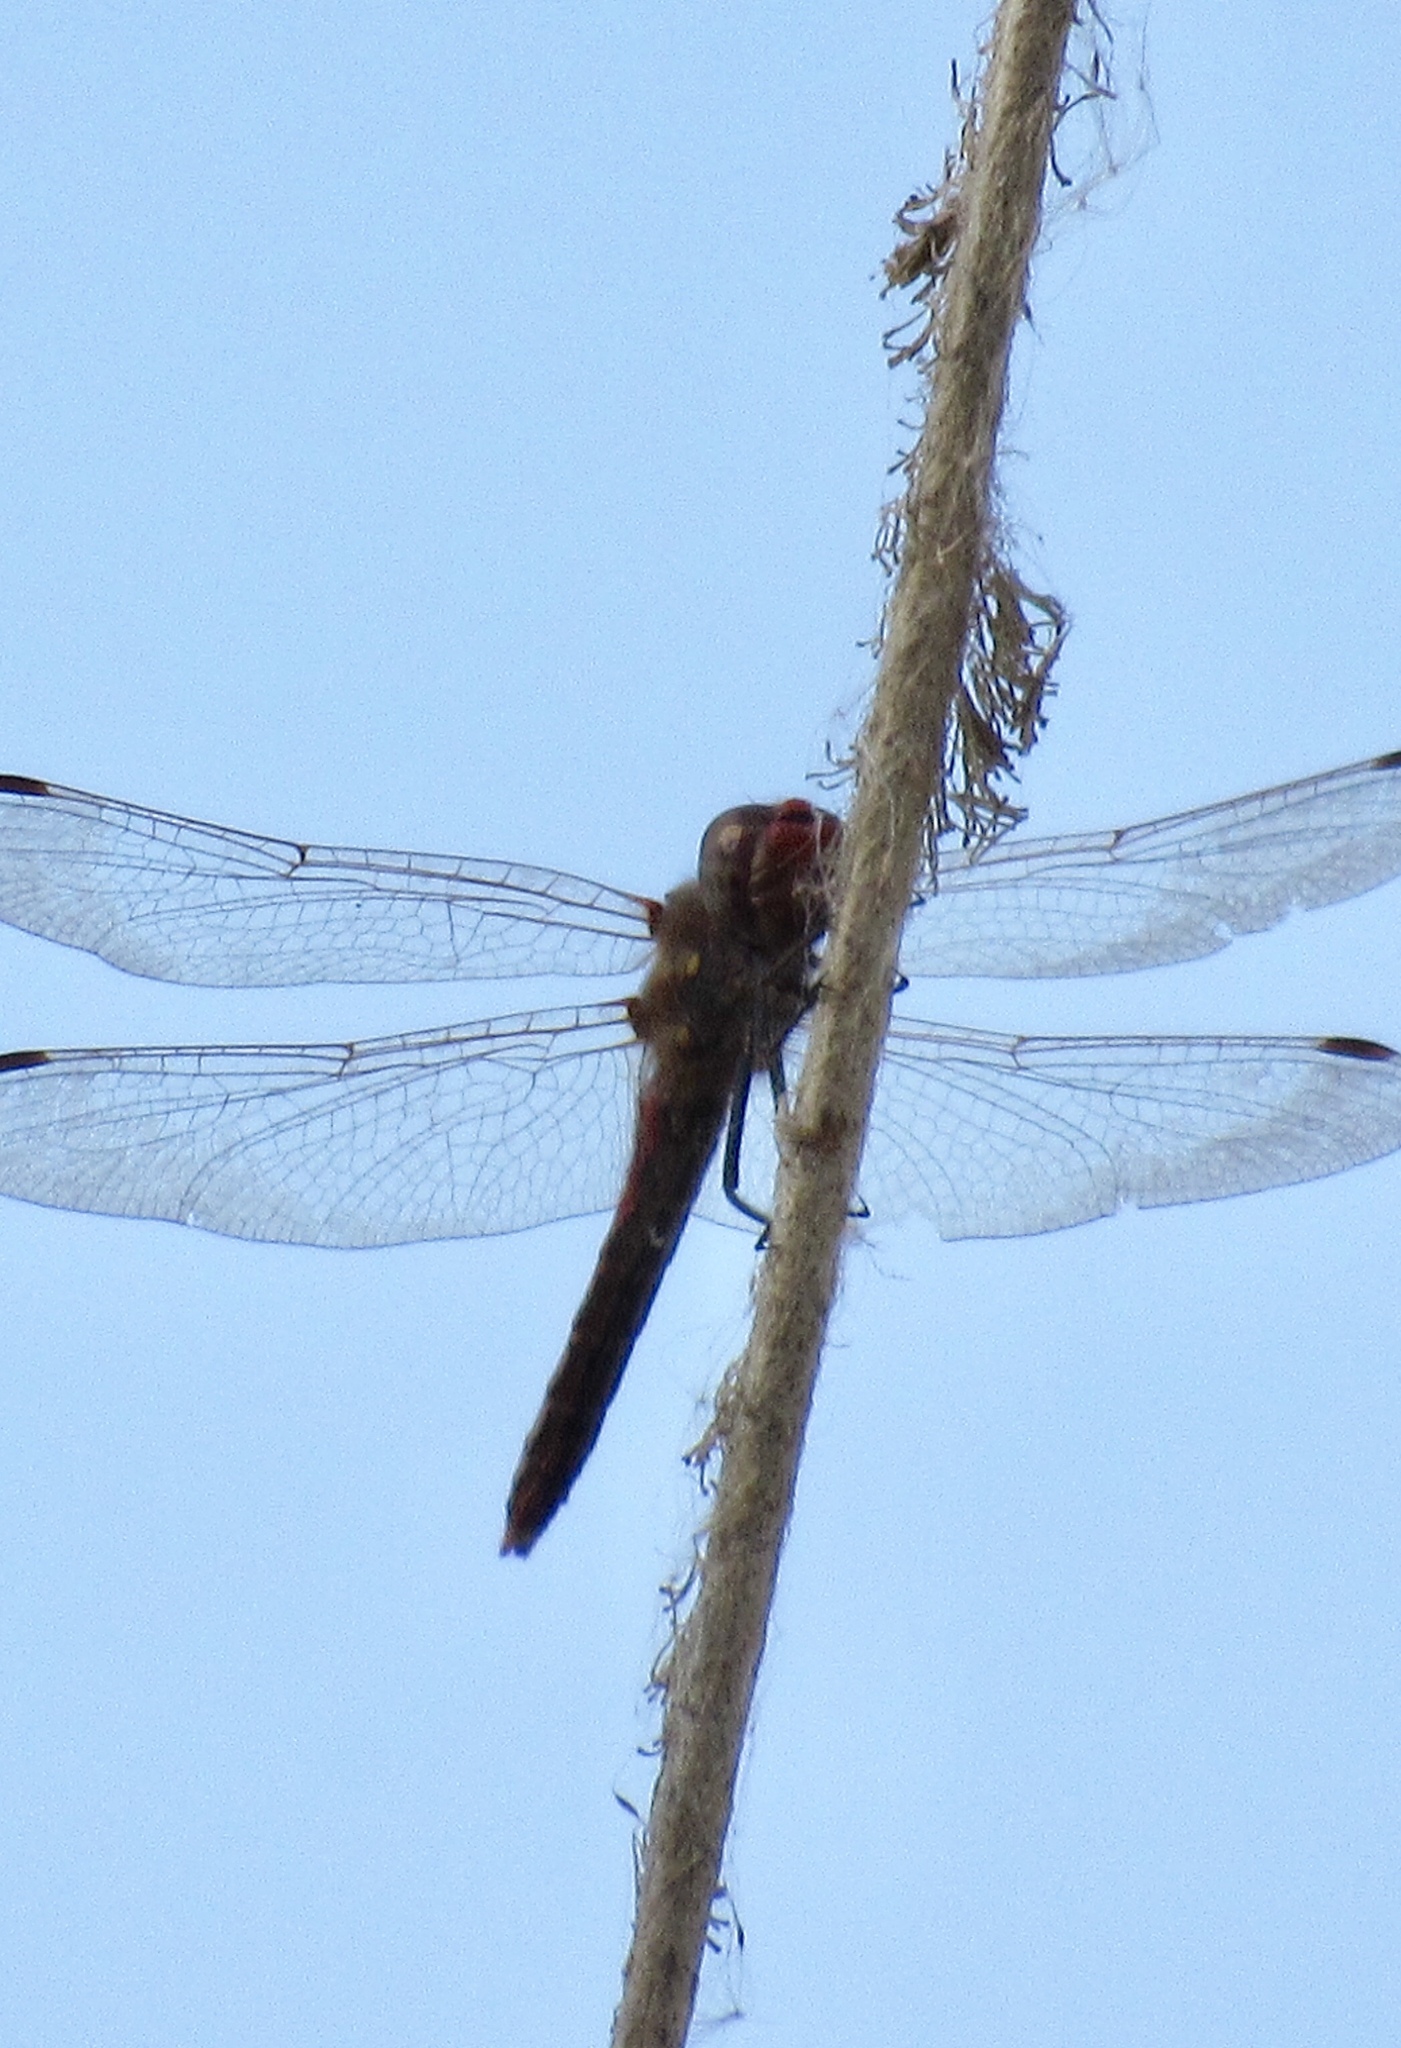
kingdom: Animalia
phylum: Arthropoda
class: Insecta
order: Odonata
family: Libellulidae
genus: Sympetrum
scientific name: Sympetrum corruptum
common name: Variegated meadowhawk
